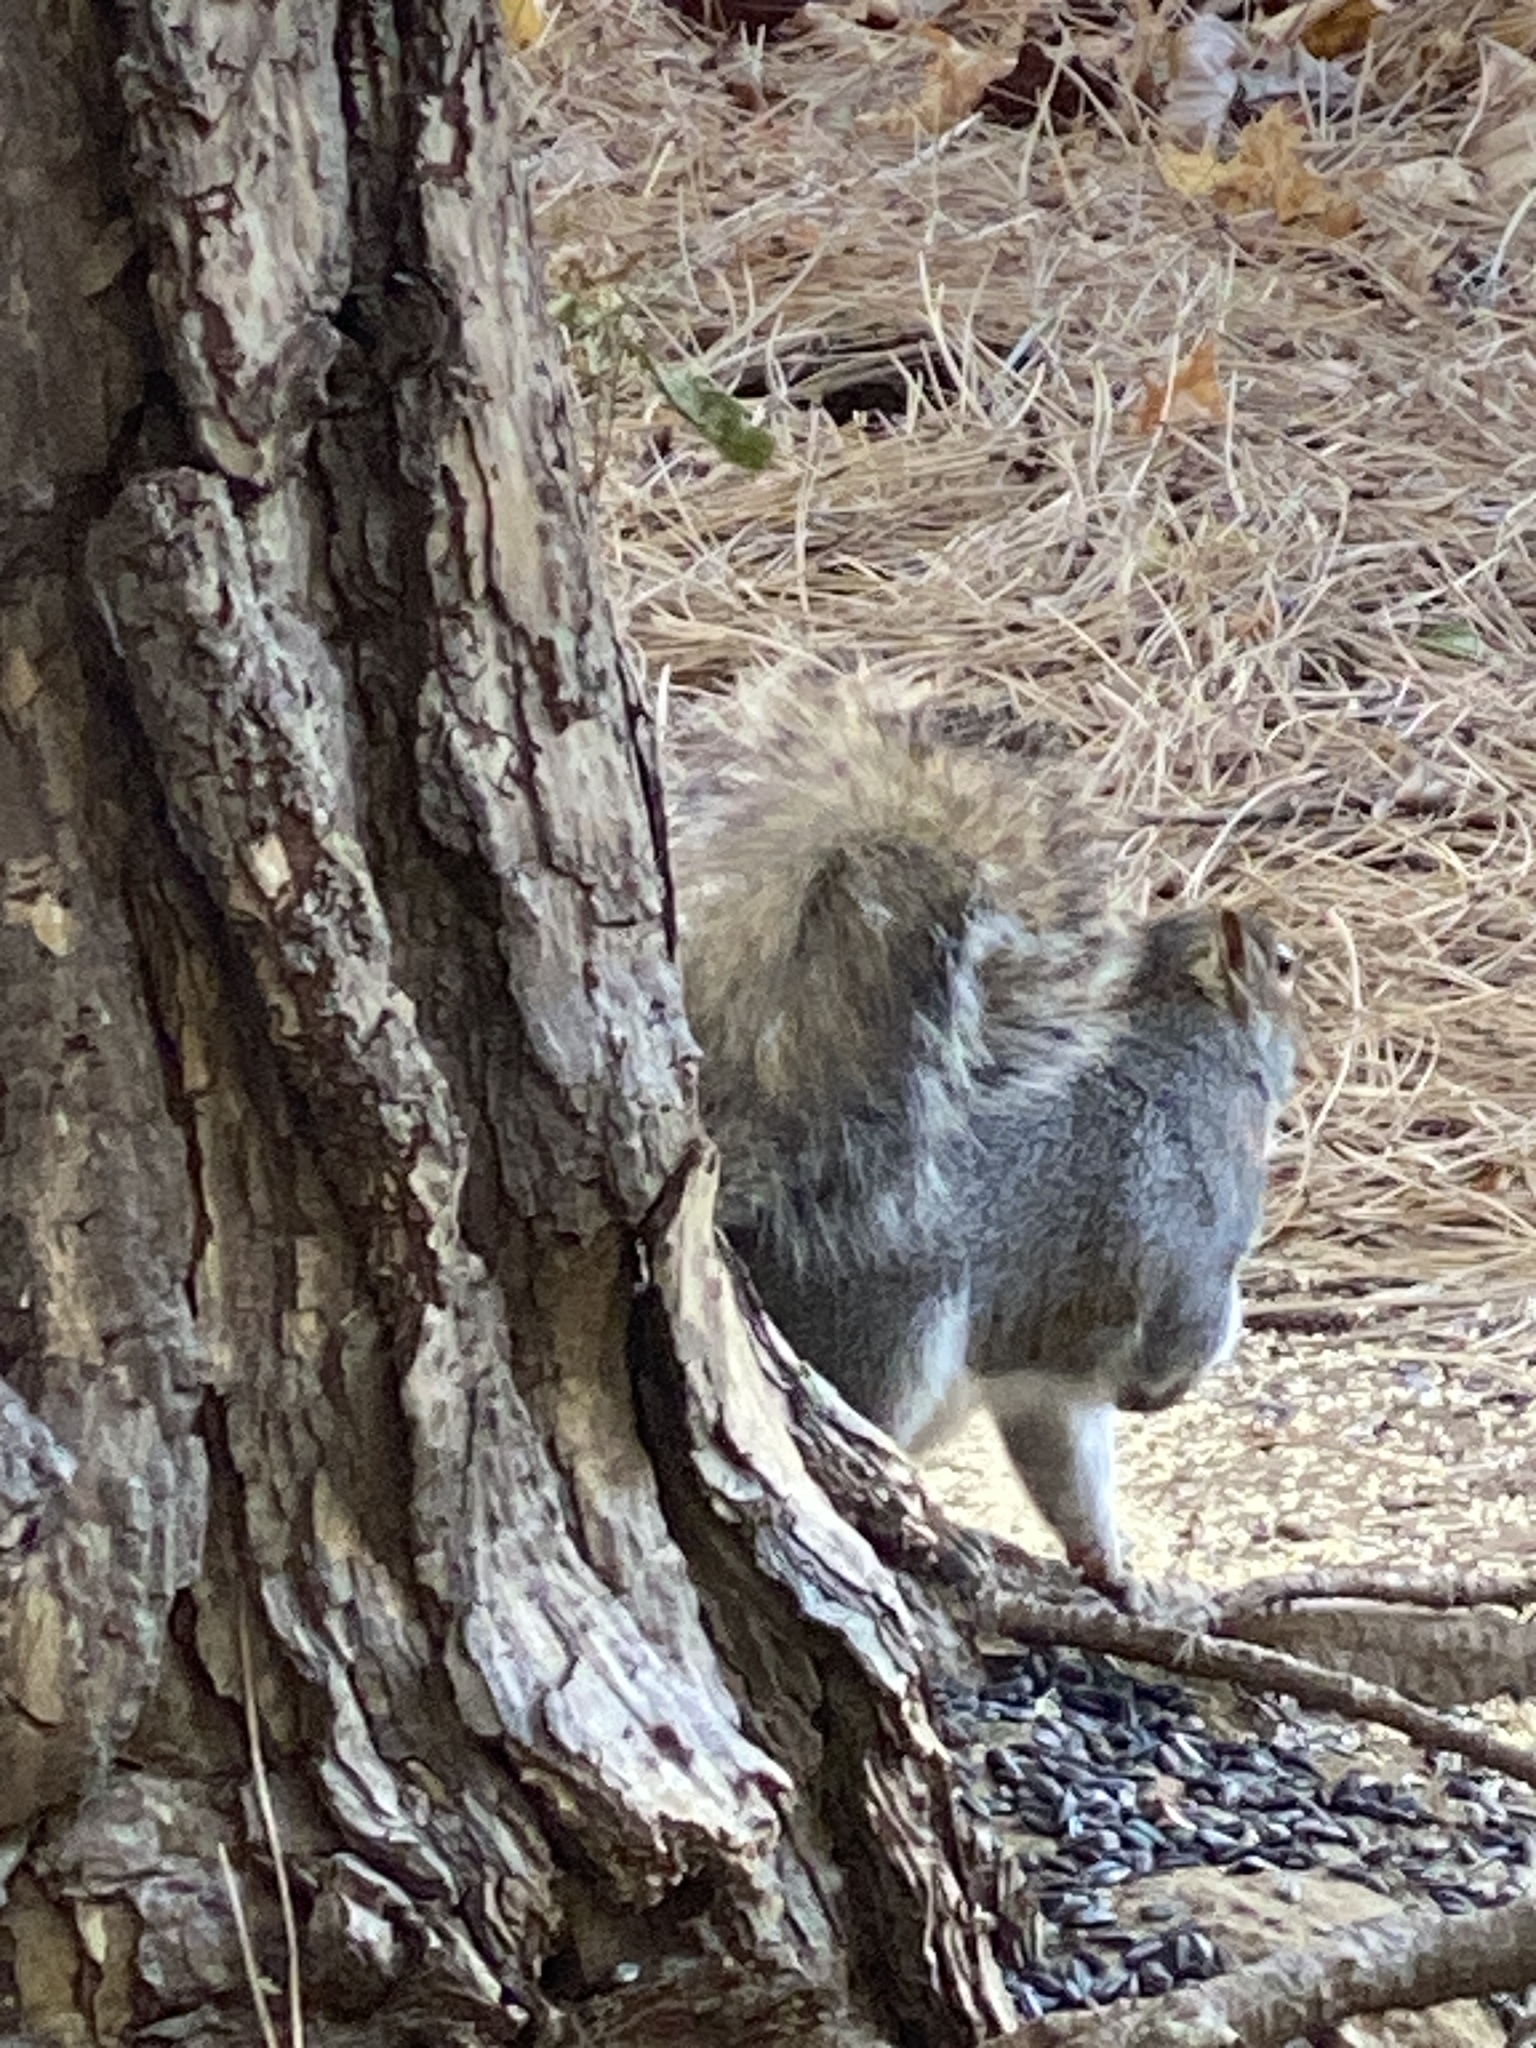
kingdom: Animalia
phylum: Chordata
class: Mammalia
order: Rodentia
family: Sciuridae
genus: Sciurus
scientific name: Sciurus carolinensis
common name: Eastern gray squirrel
